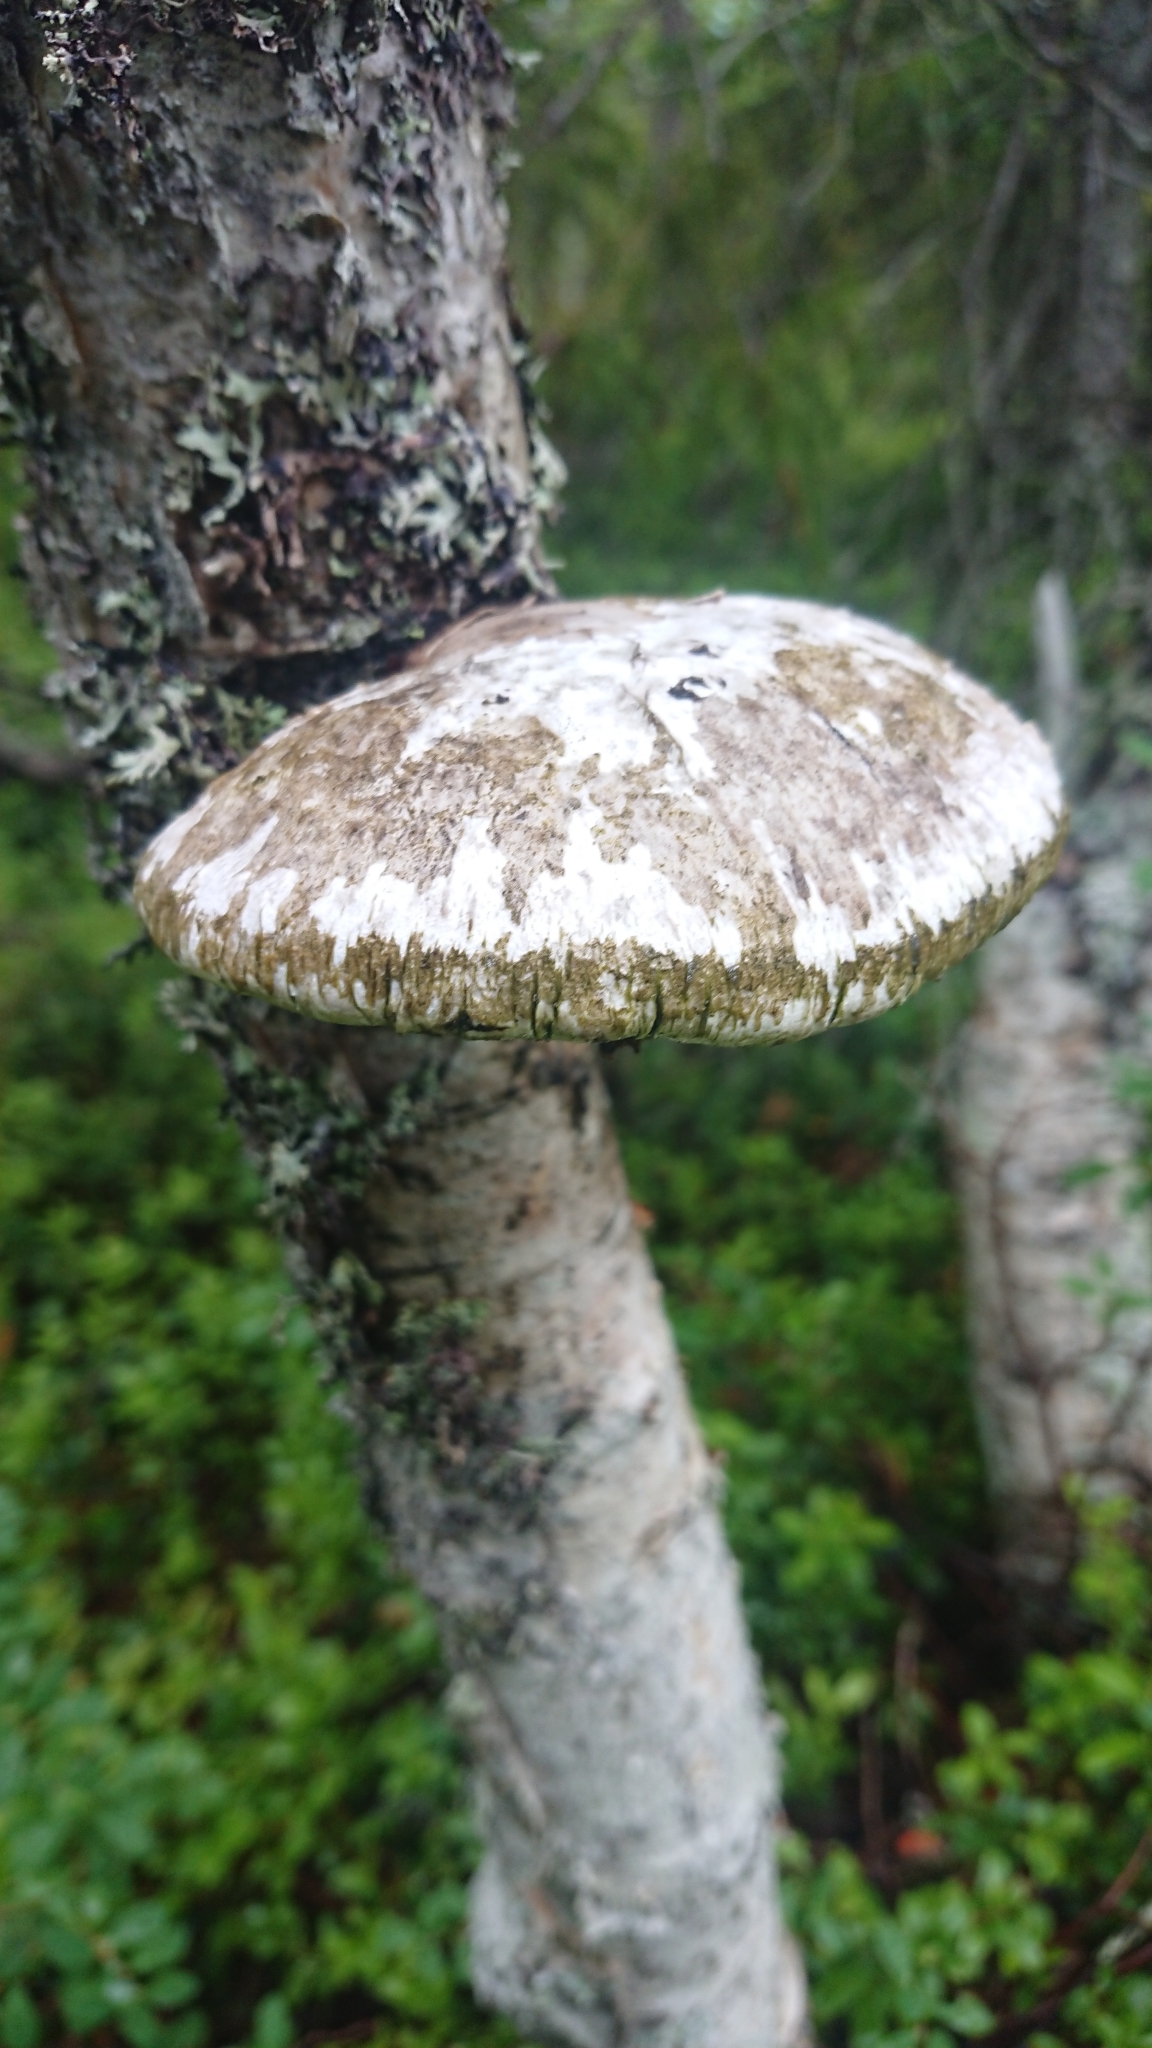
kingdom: Fungi
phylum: Basidiomycota
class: Agaricomycetes
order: Polyporales
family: Fomitopsidaceae
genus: Fomitopsis
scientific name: Fomitopsis betulina
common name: Birch polypore
